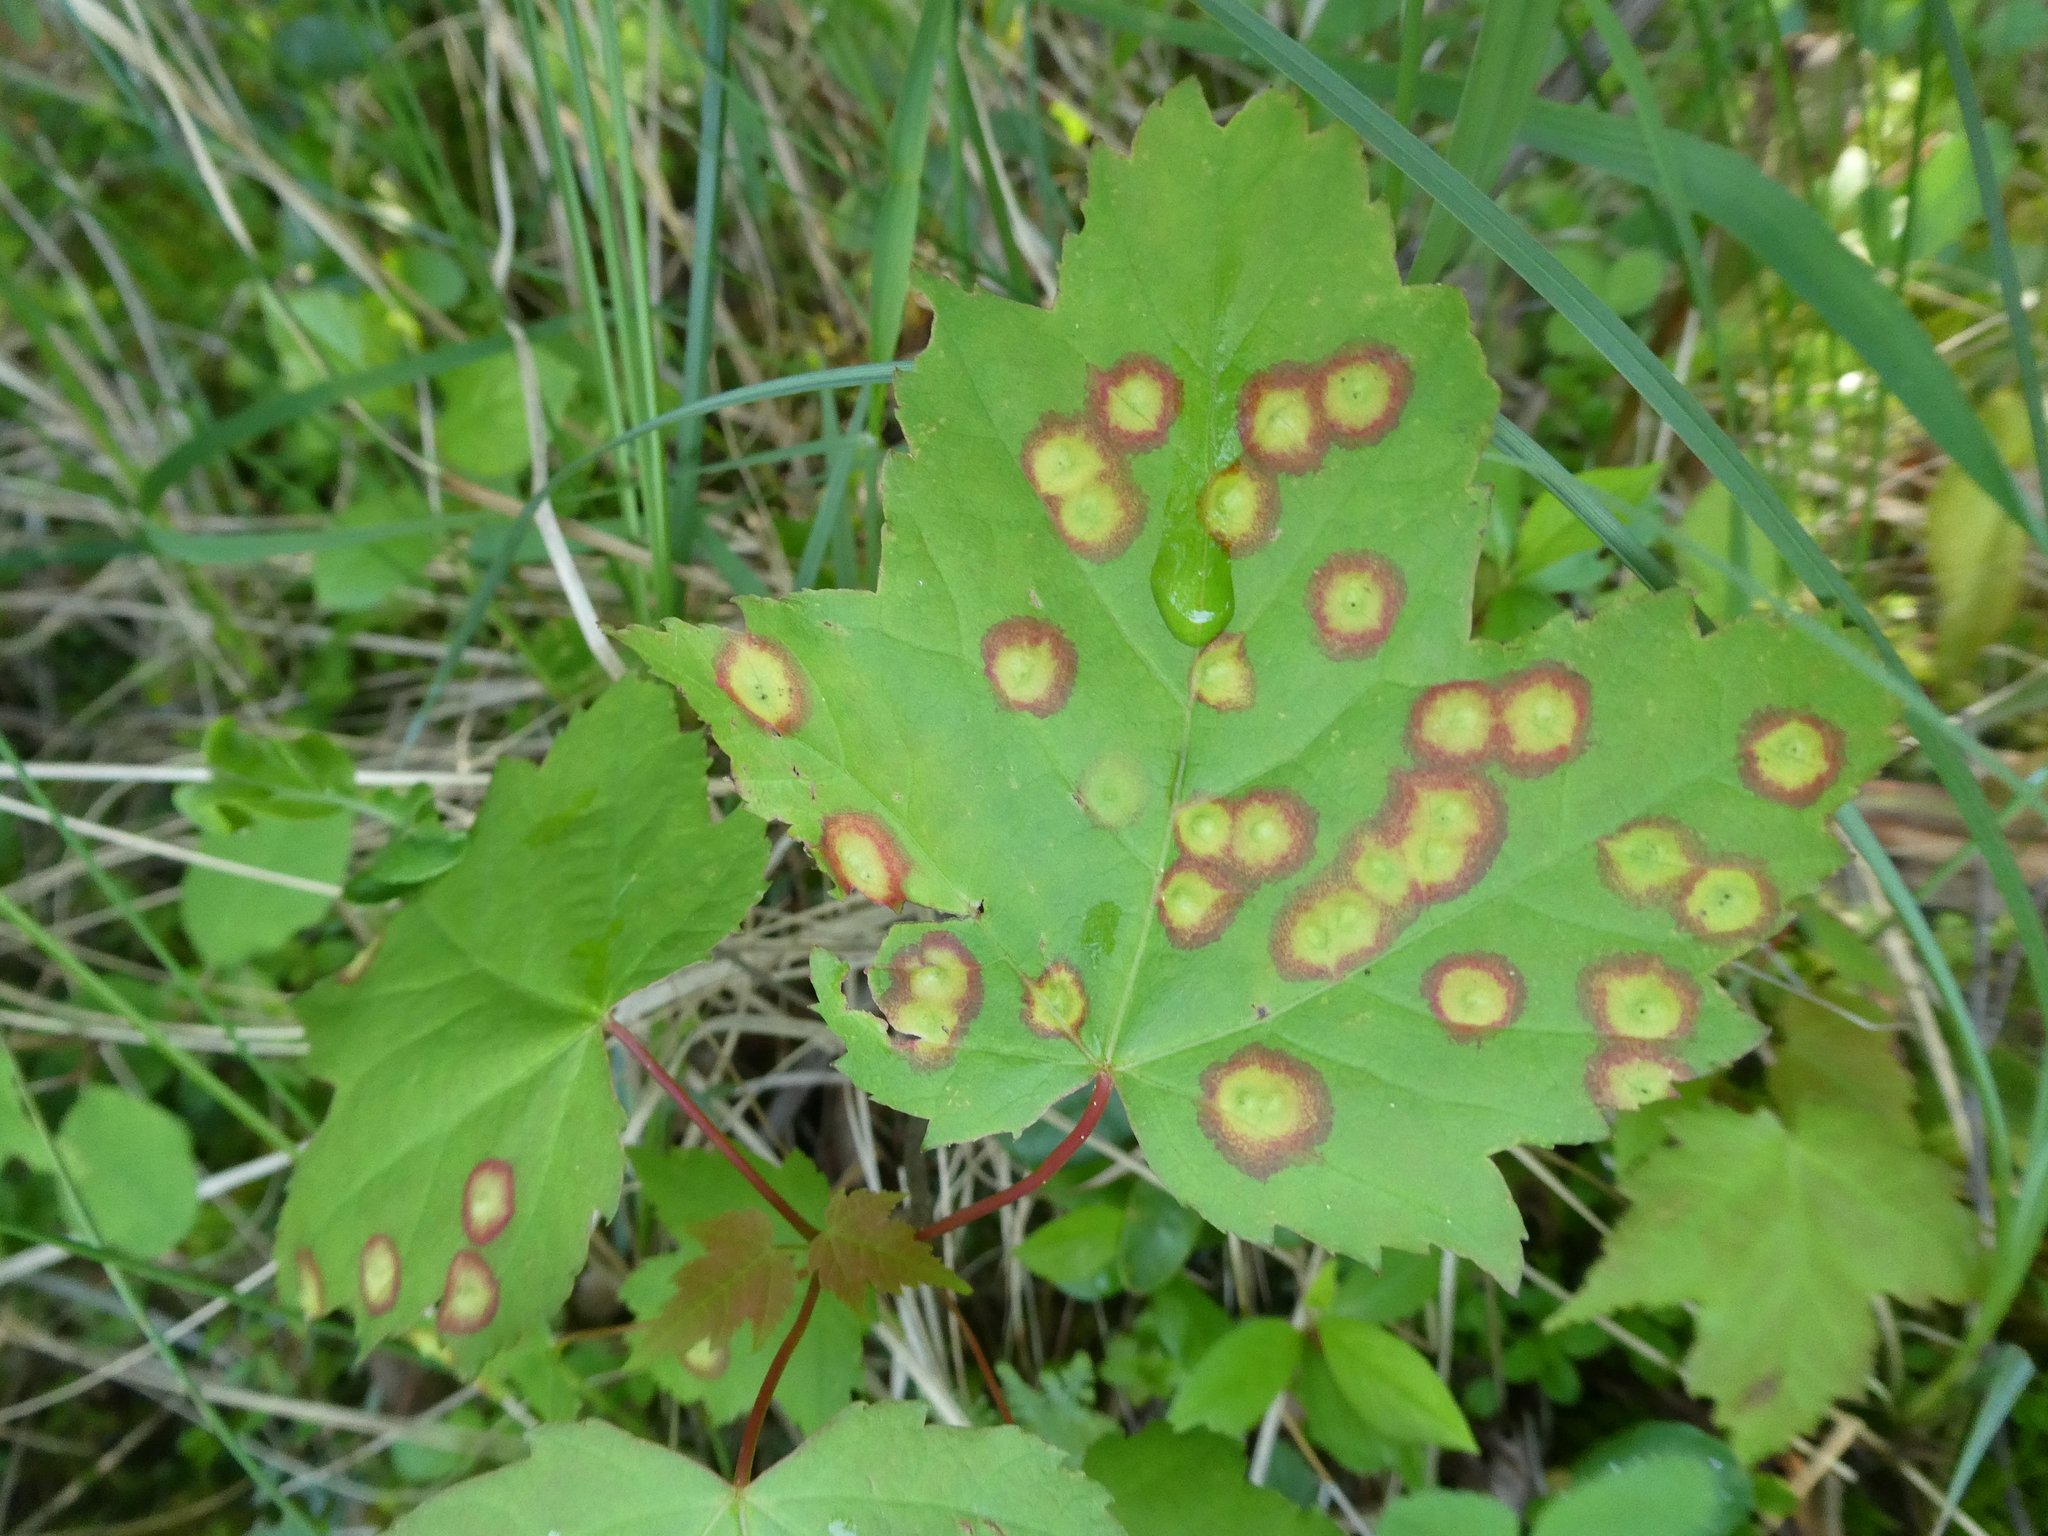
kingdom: Plantae
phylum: Tracheophyta
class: Magnoliopsida
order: Sapindales
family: Sapindaceae
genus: Acer
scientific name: Acer rubrum
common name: Red maple
